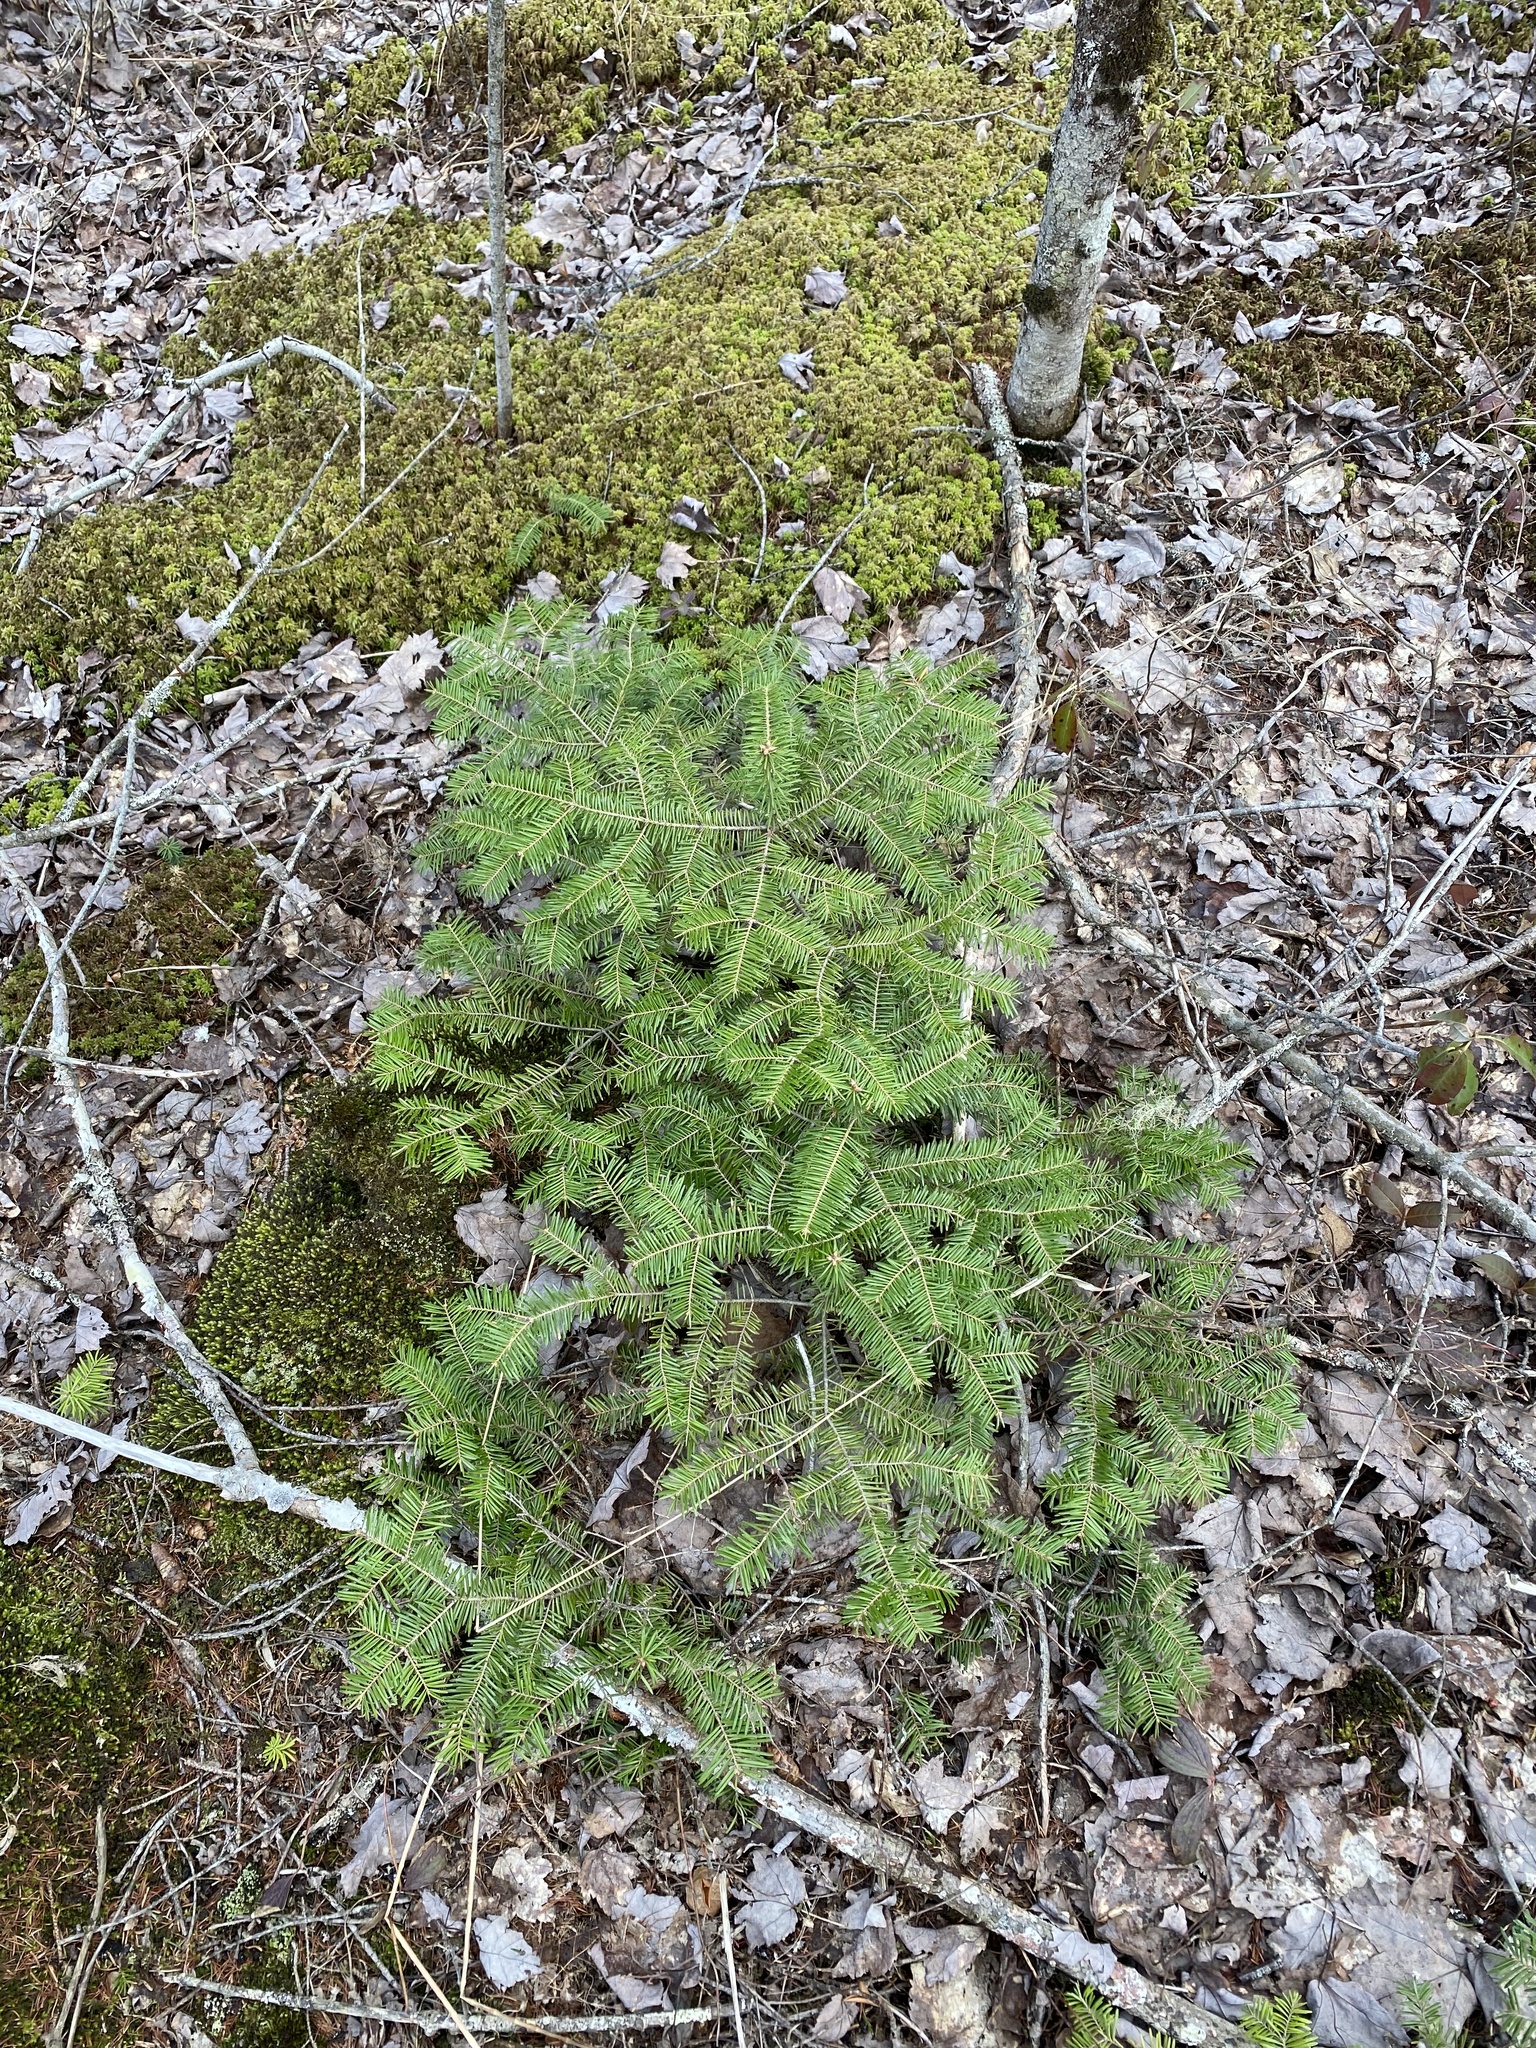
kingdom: Plantae
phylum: Tracheophyta
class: Pinopsida
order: Pinales
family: Pinaceae
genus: Abies
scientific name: Abies balsamea
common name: Balsam fir
